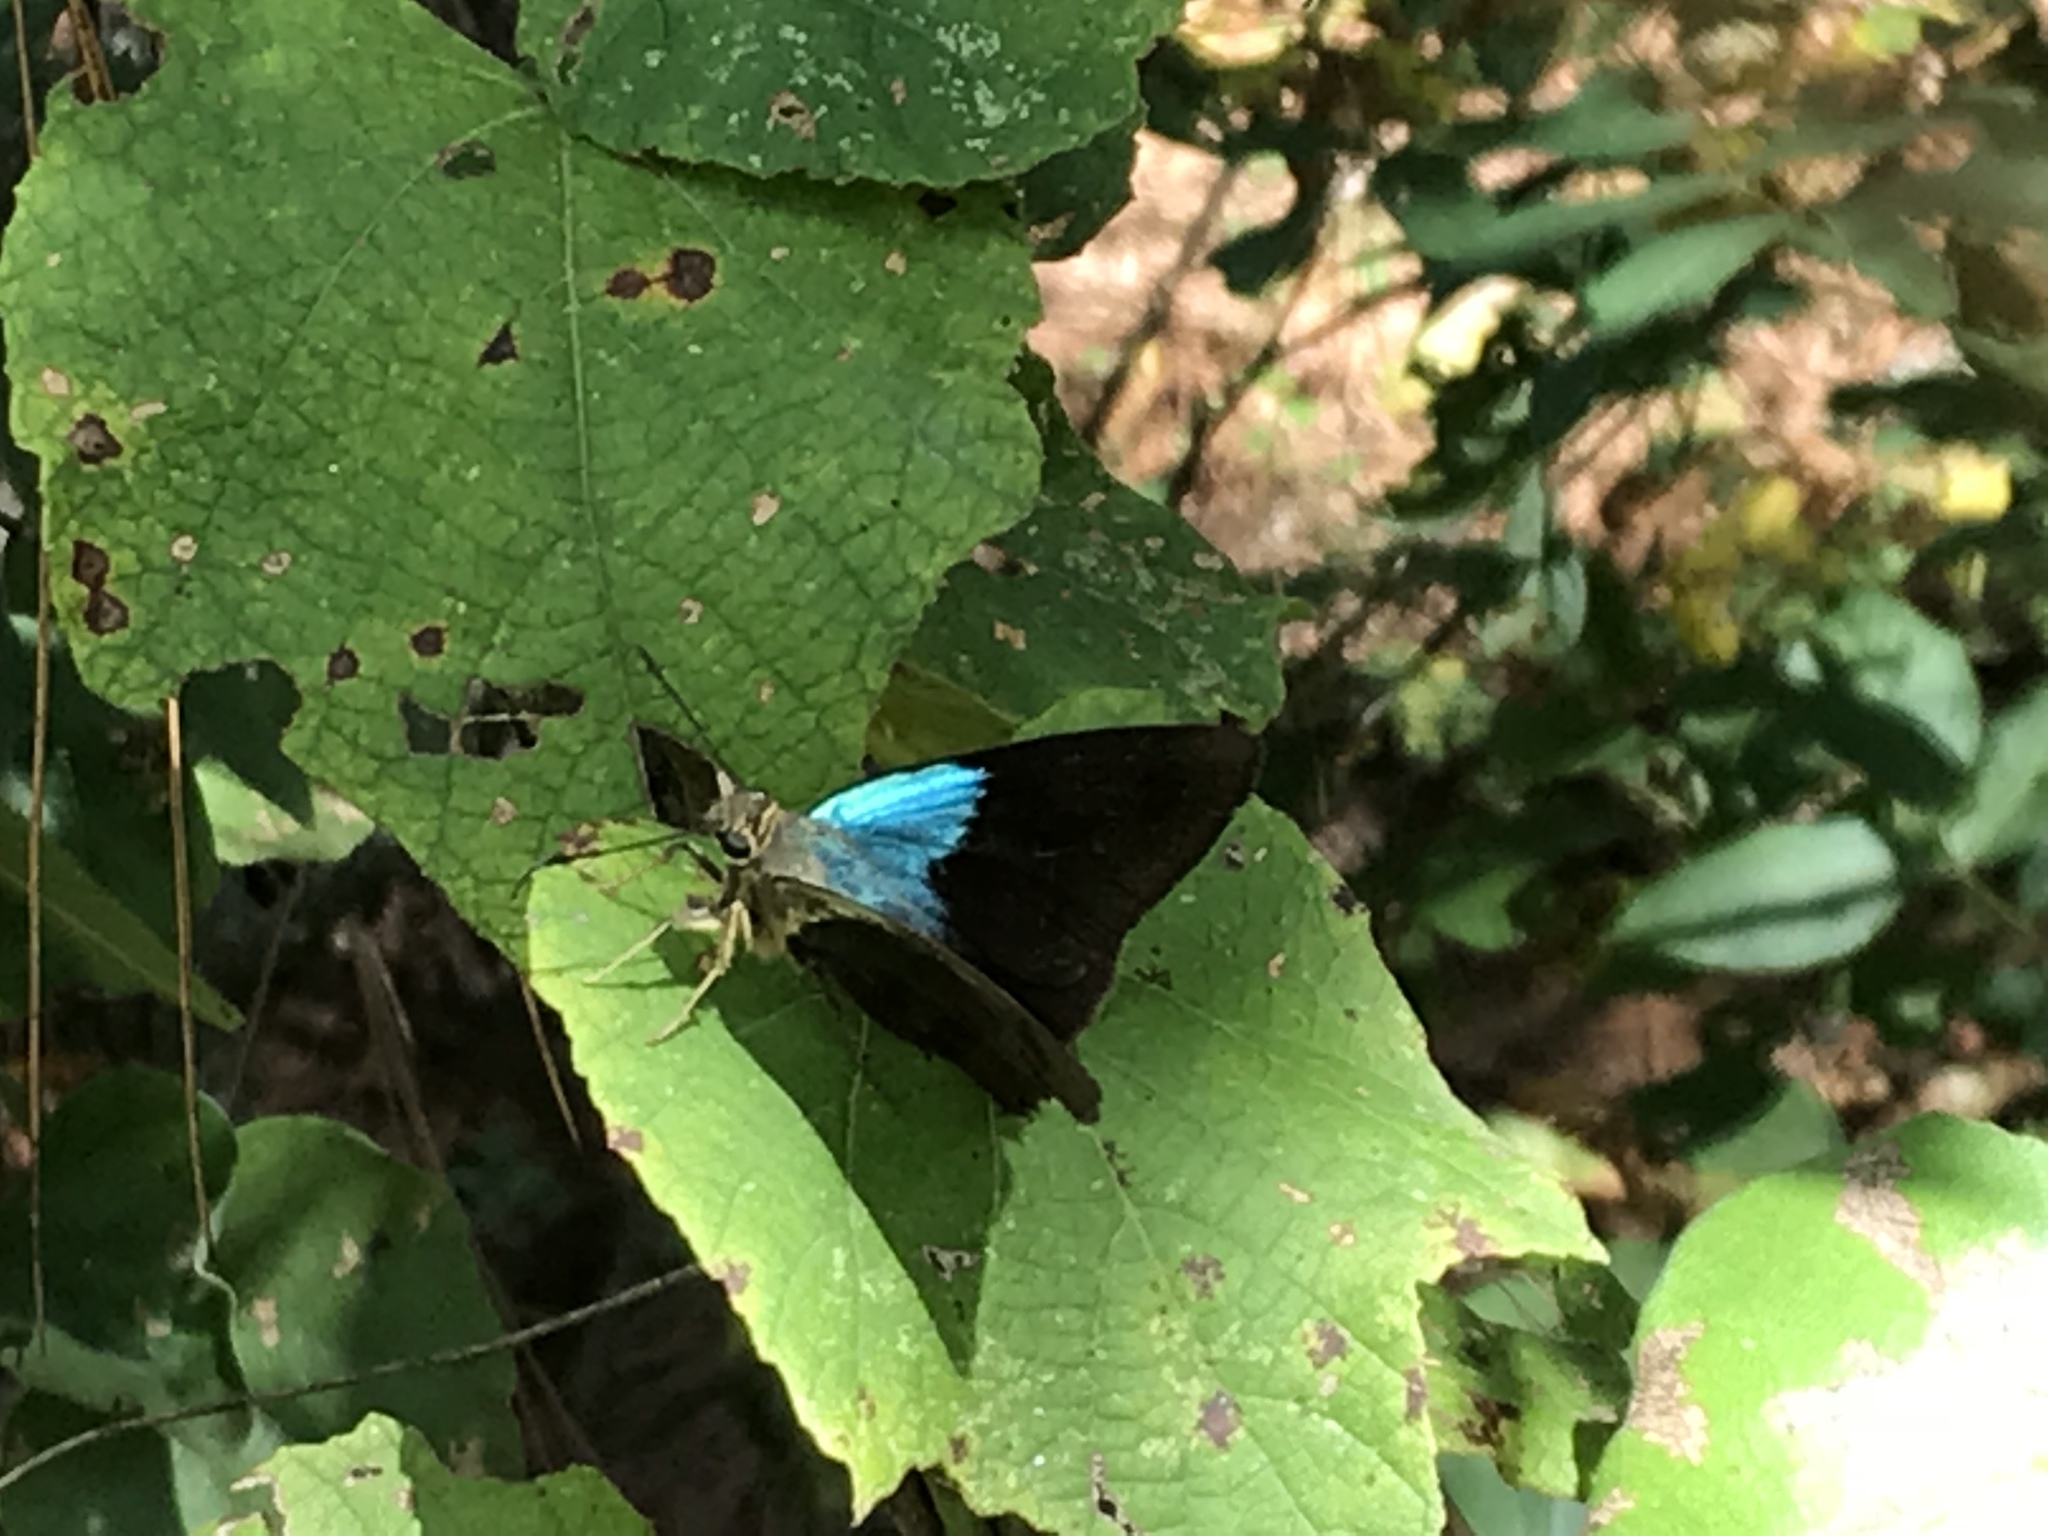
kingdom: Animalia
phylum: Arthropoda
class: Insecta
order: Lepidoptera
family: Hesperiidae
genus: Astraptes
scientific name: Astraptes alector
